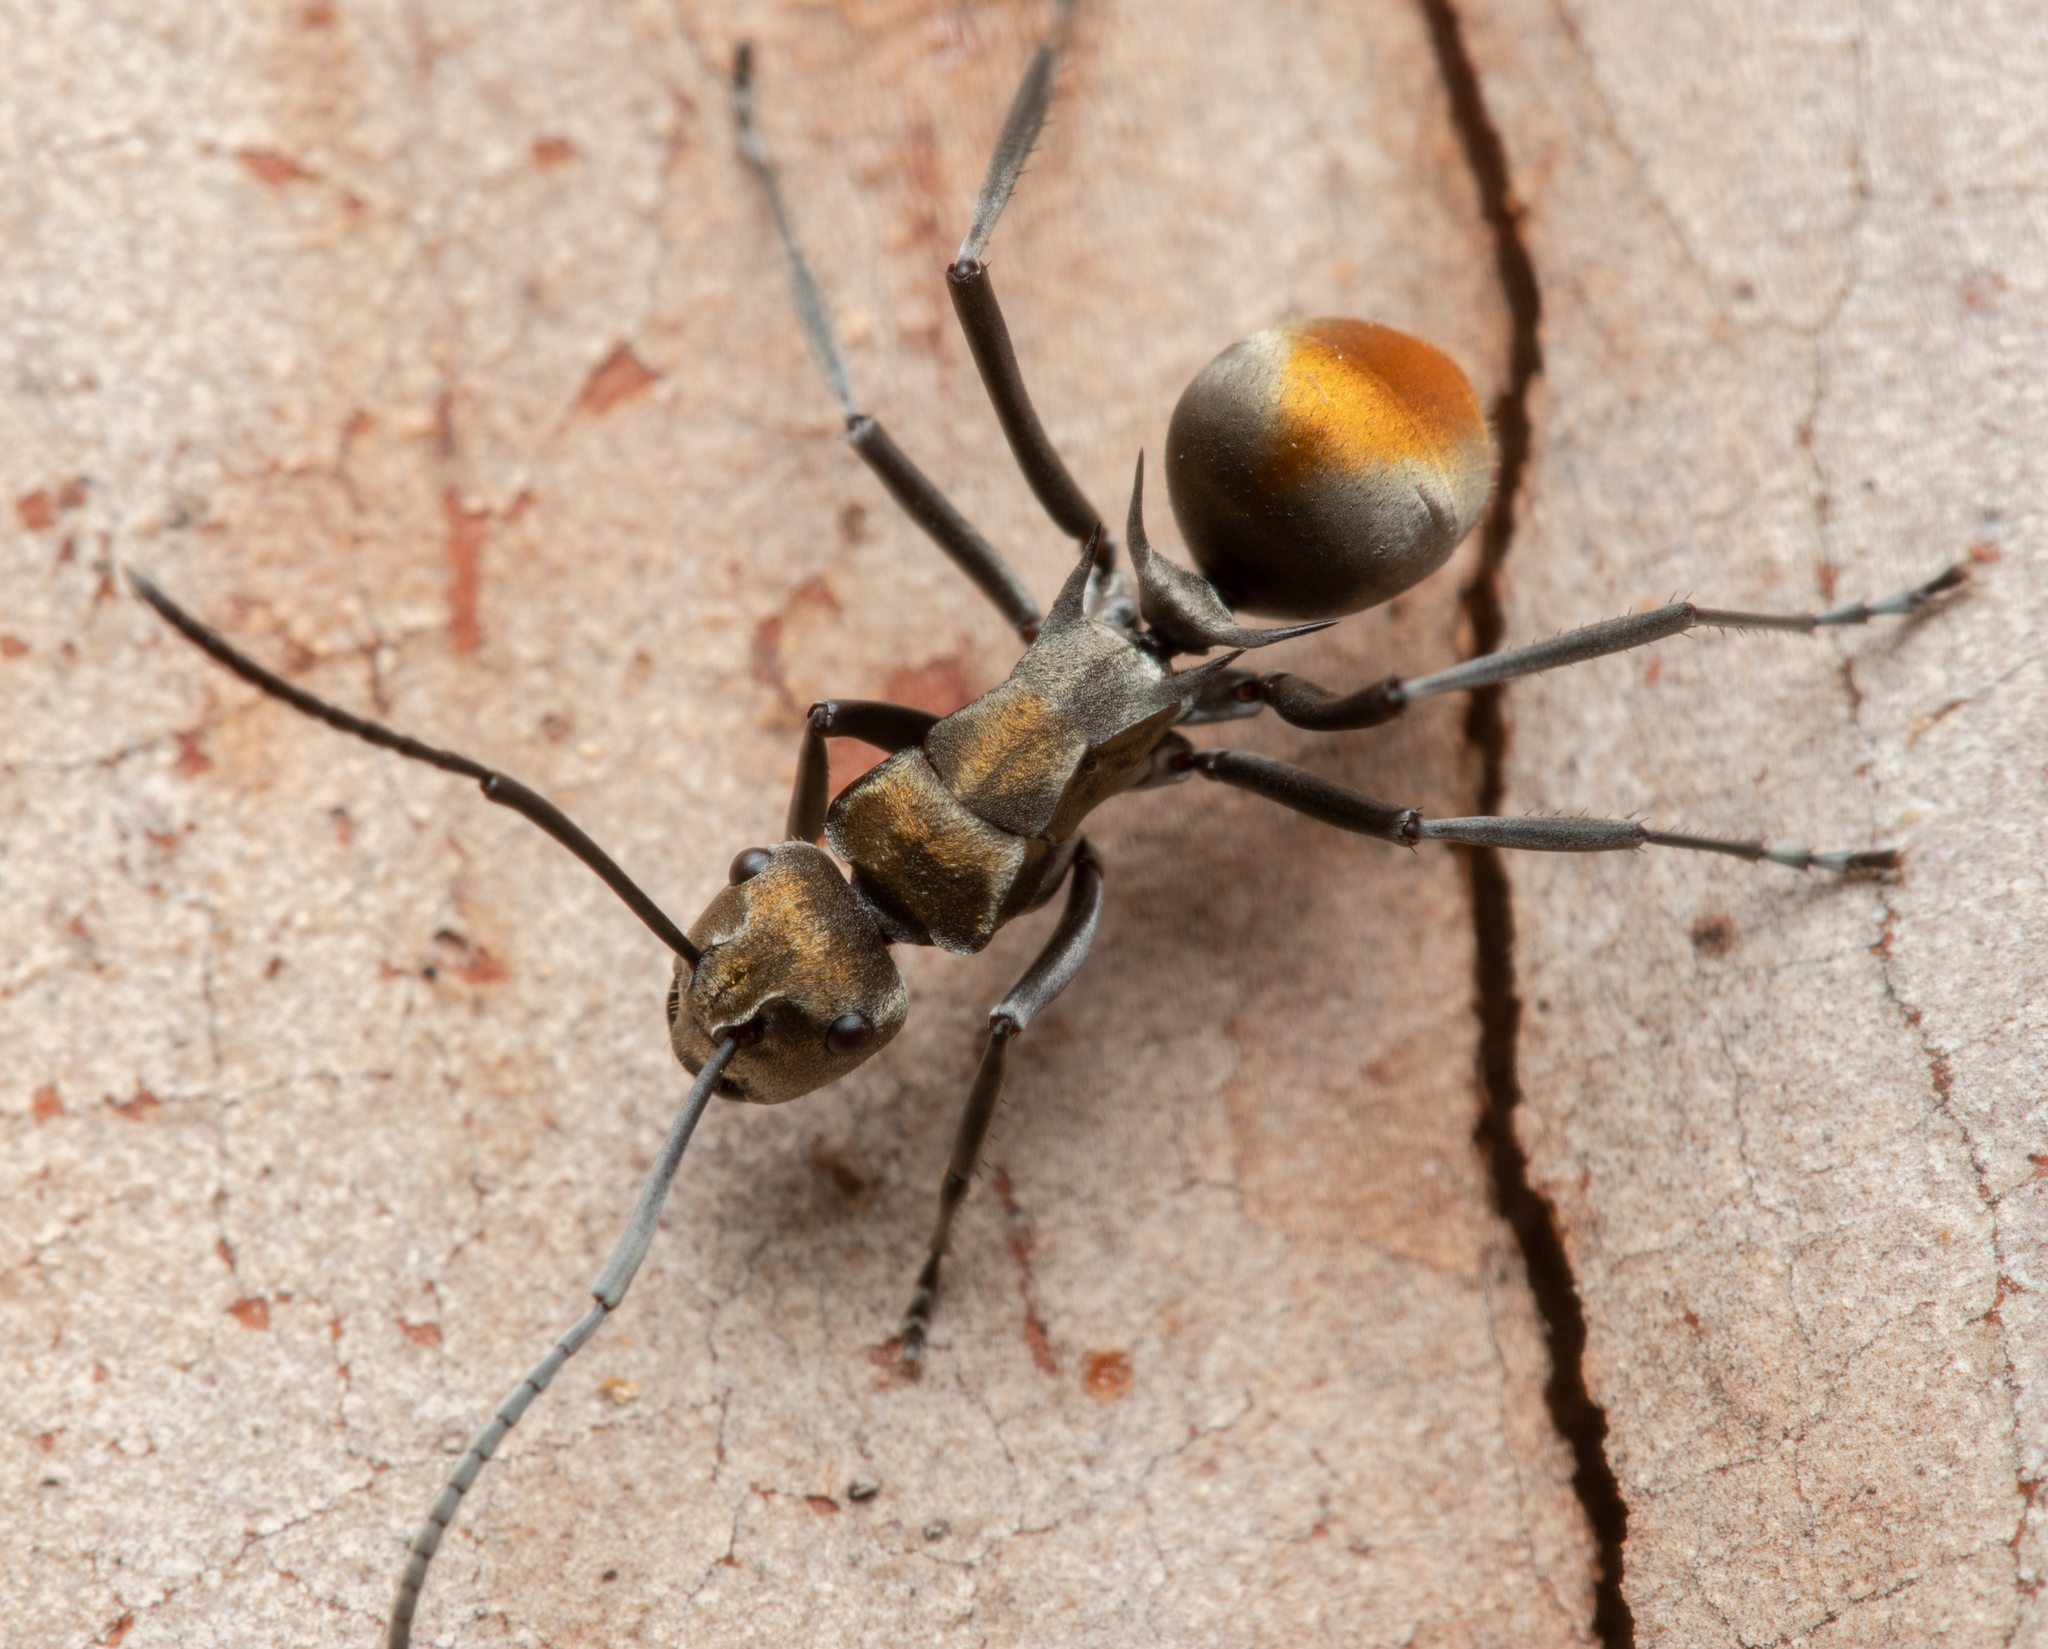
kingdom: Animalia
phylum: Arthropoda
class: Insecta
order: Hymenoptera
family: Formicidae
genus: Polyrhachis
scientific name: Polyrhachis trapezoidea
